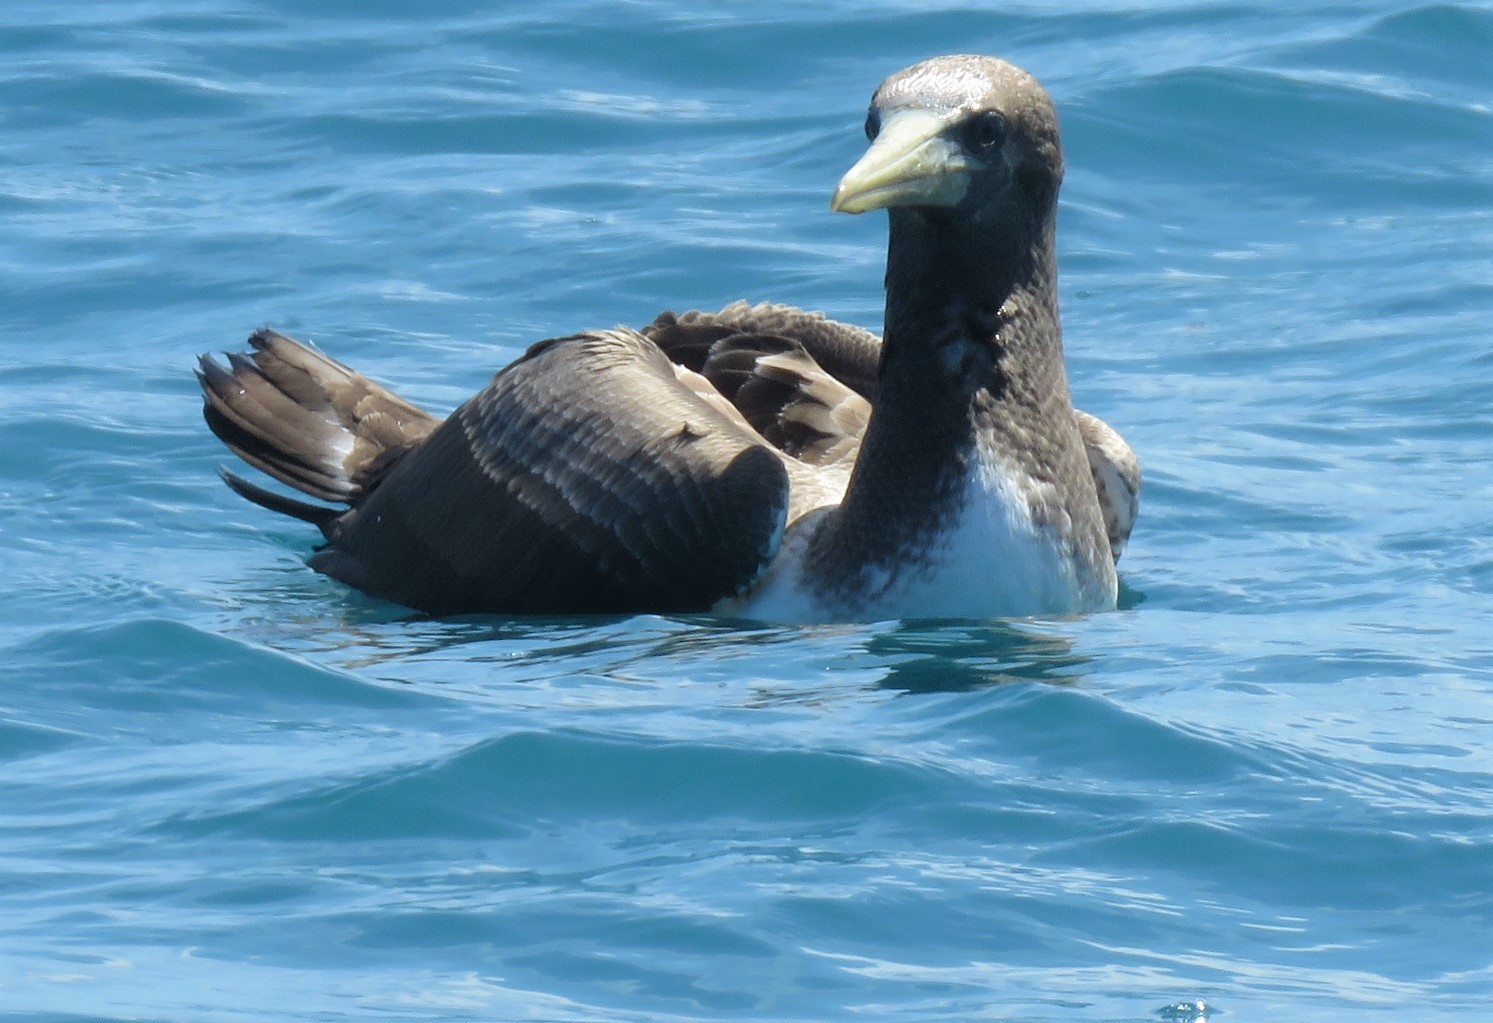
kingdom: Animalia
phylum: Chordata
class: Aves
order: Suliformes
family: Sulidae
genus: Sula
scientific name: Sula granti
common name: Nazca booby
